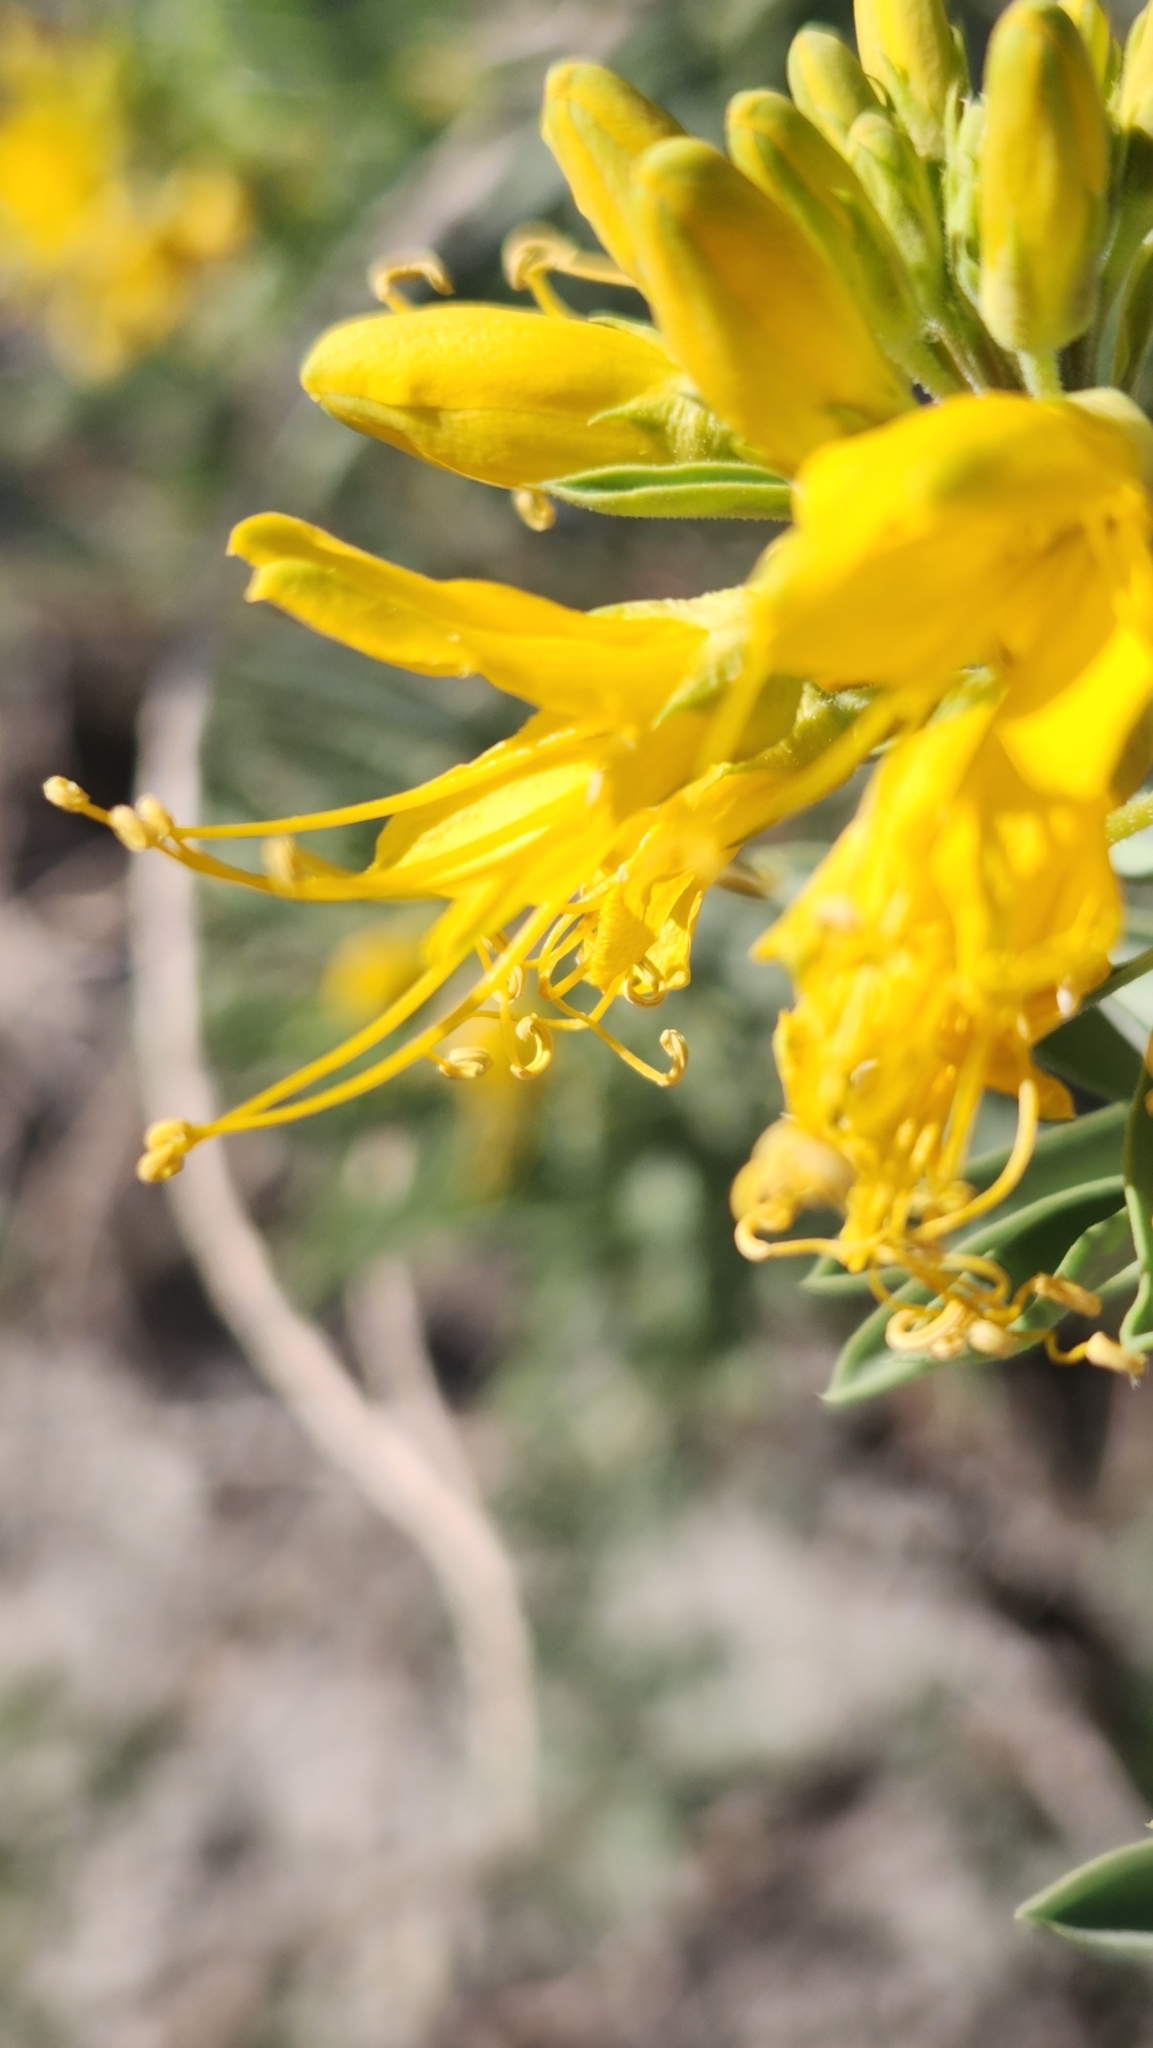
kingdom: Plantae
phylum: Tracheophyta
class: Magnoliopsida
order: Brassicales
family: Cleomaceae
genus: Cleomella
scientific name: Cleomella arborea
